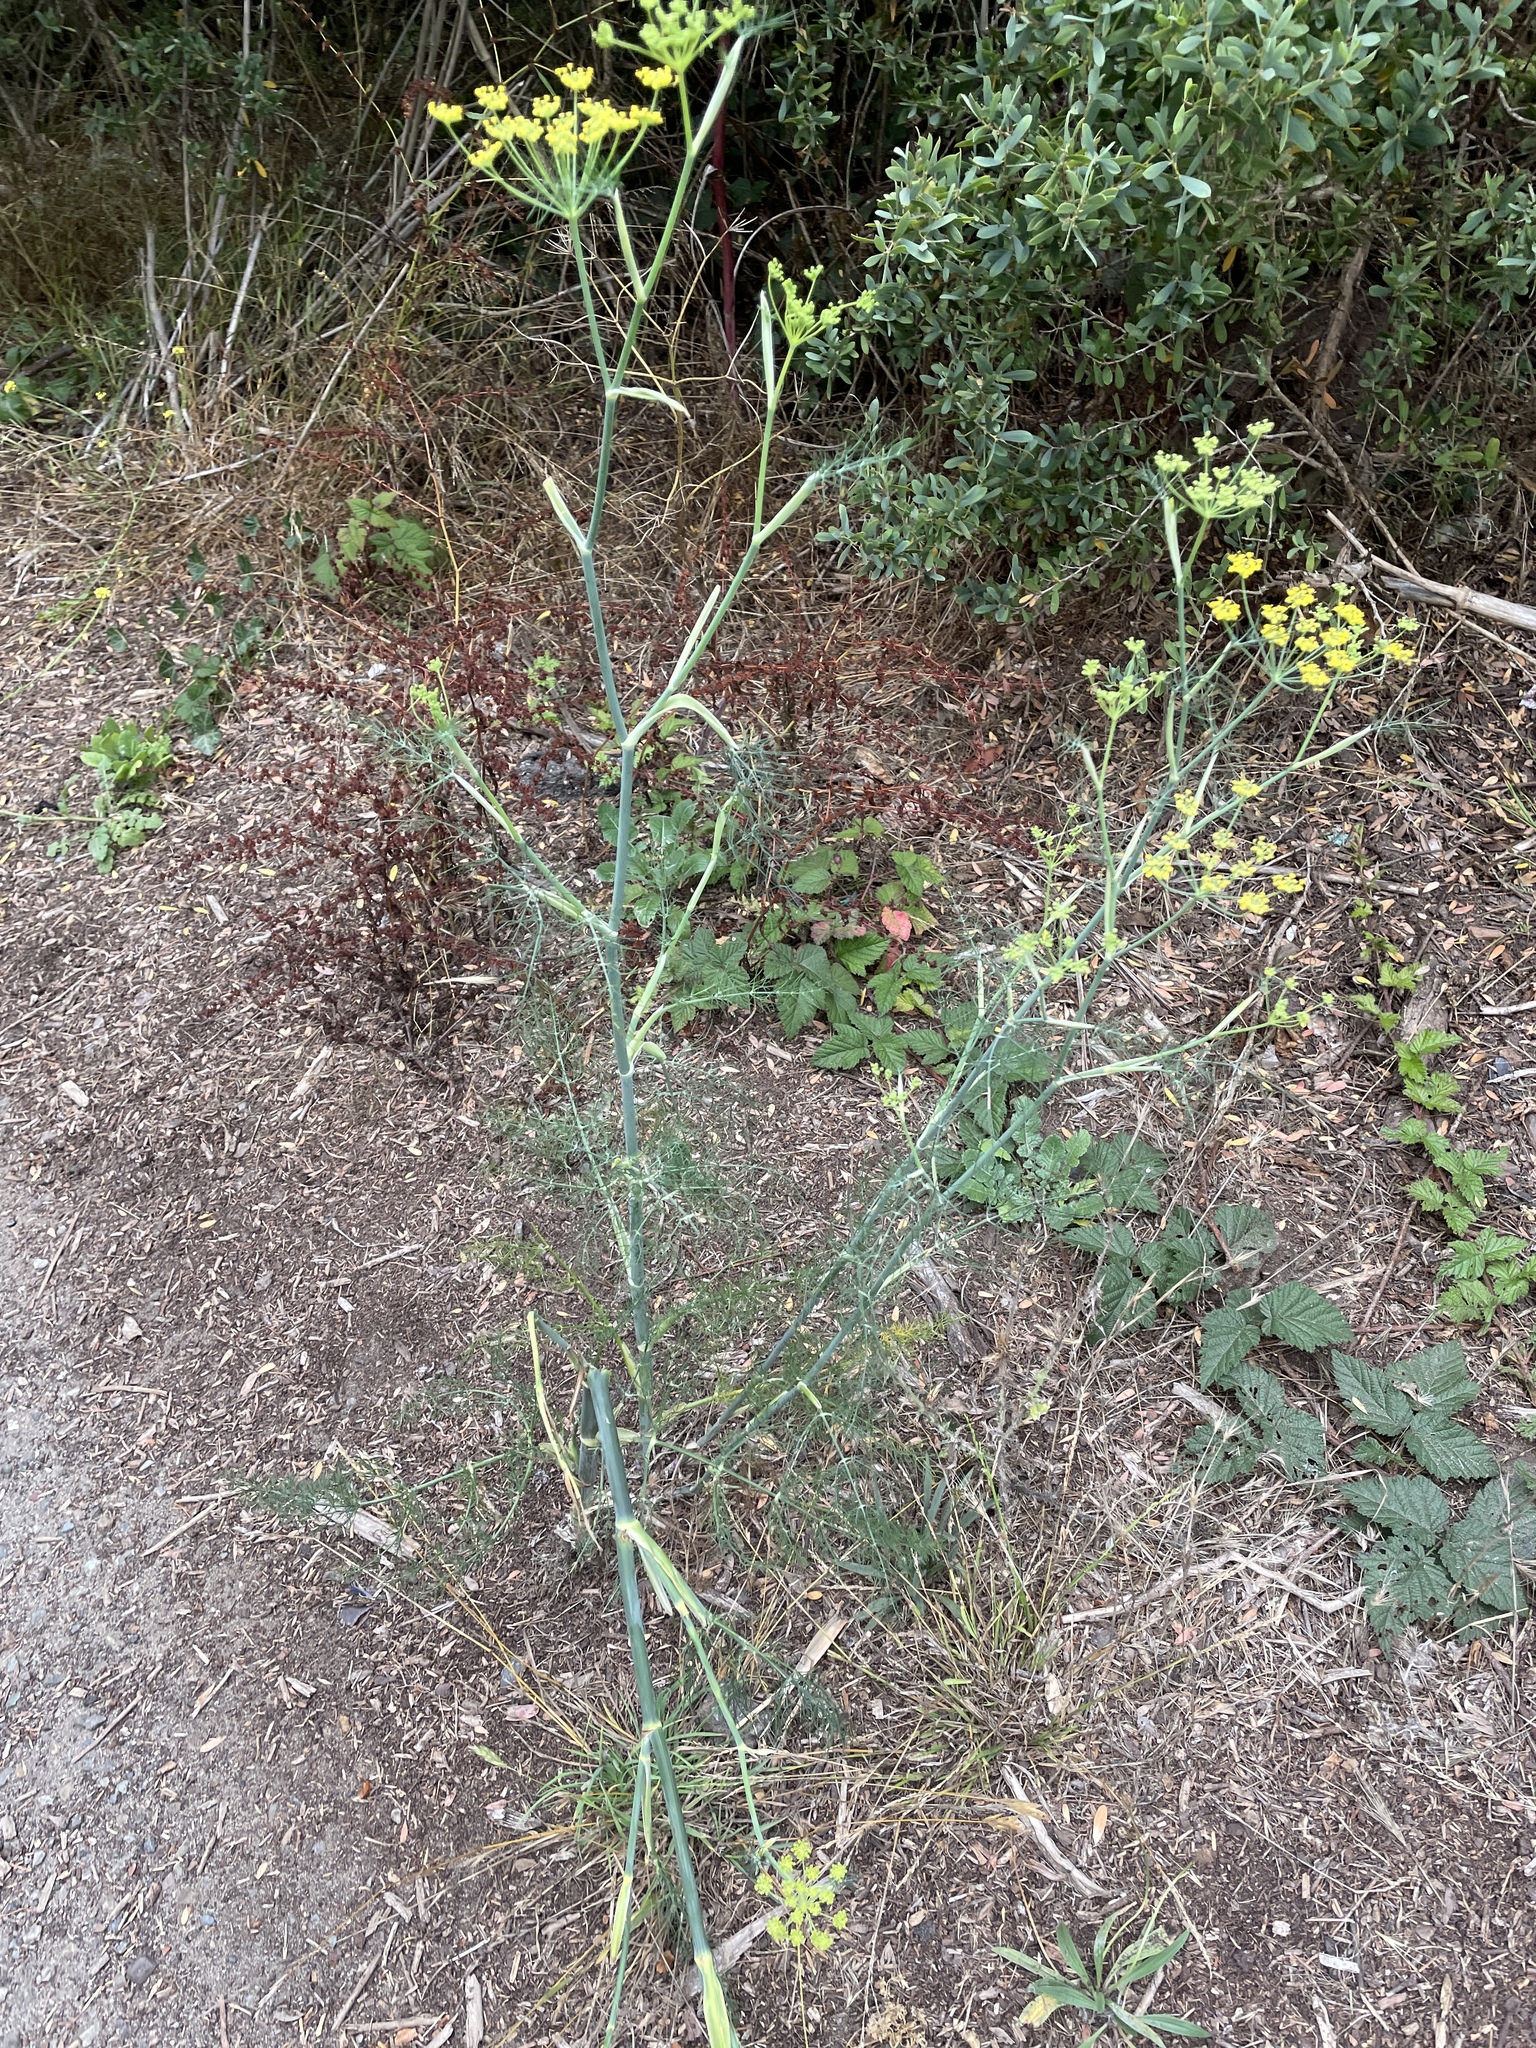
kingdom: Plantae
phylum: Tracheophyta
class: Magnoliopsida
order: Apiales
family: Apiaceae
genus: Foeniculum
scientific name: Foeniculum vulgare
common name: Fennel
